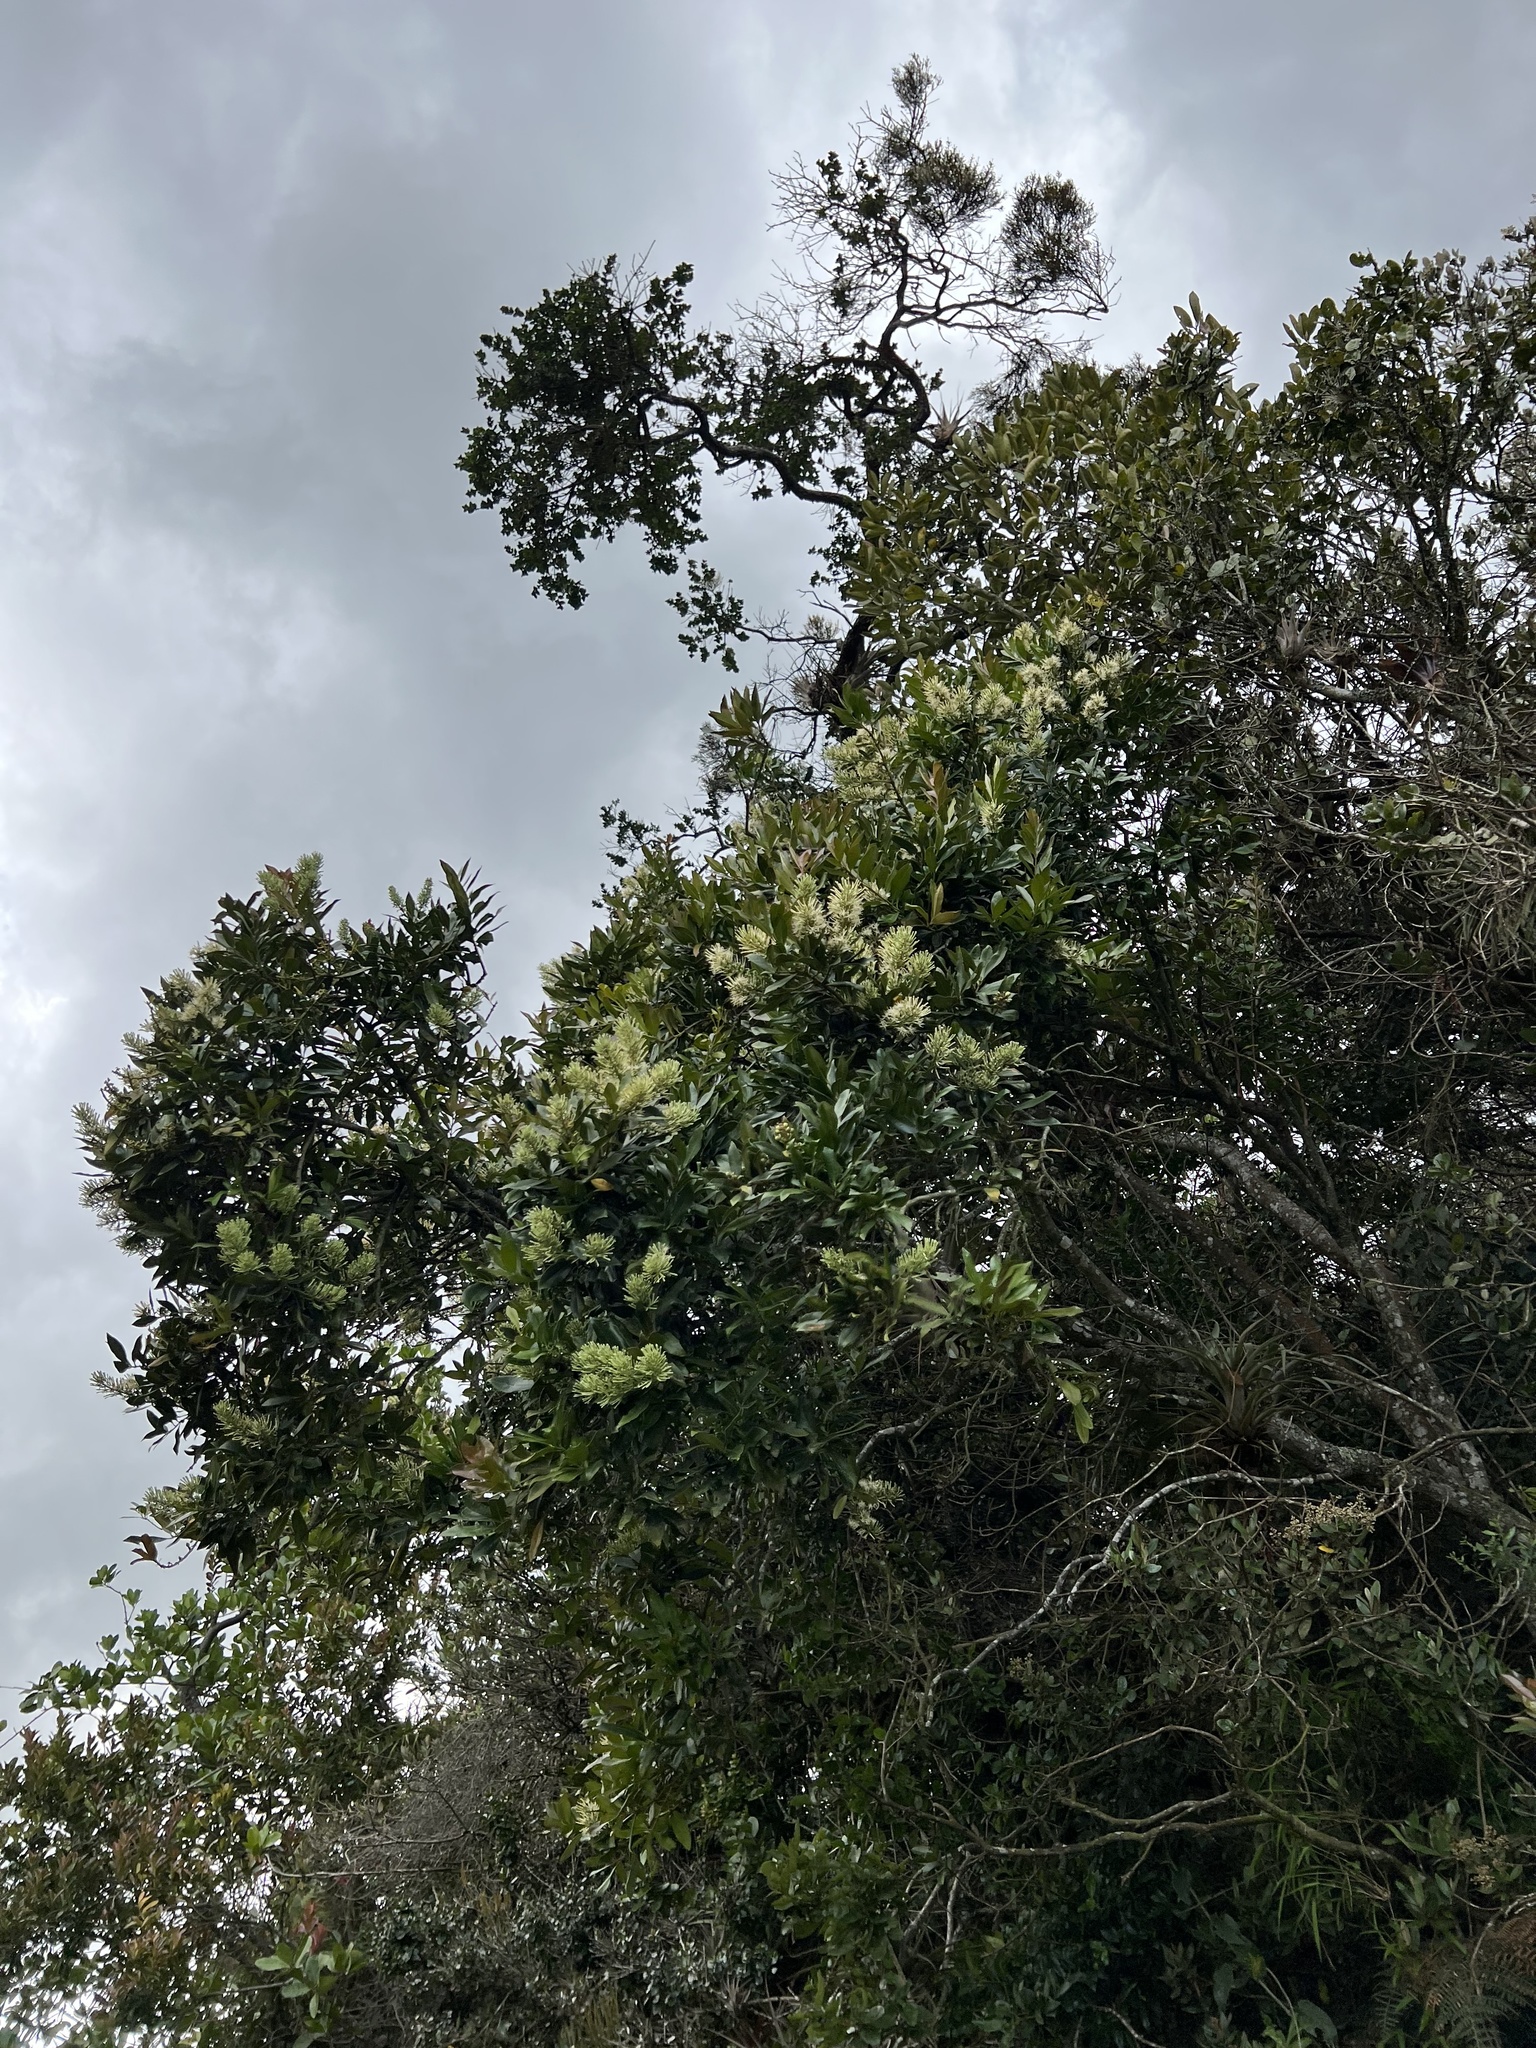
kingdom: Plantae
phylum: Tracheophyta
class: Magnoliopsida
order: Santalales
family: Loranthaceae
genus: Gaiadendron
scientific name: Gaiadendron punctatum
